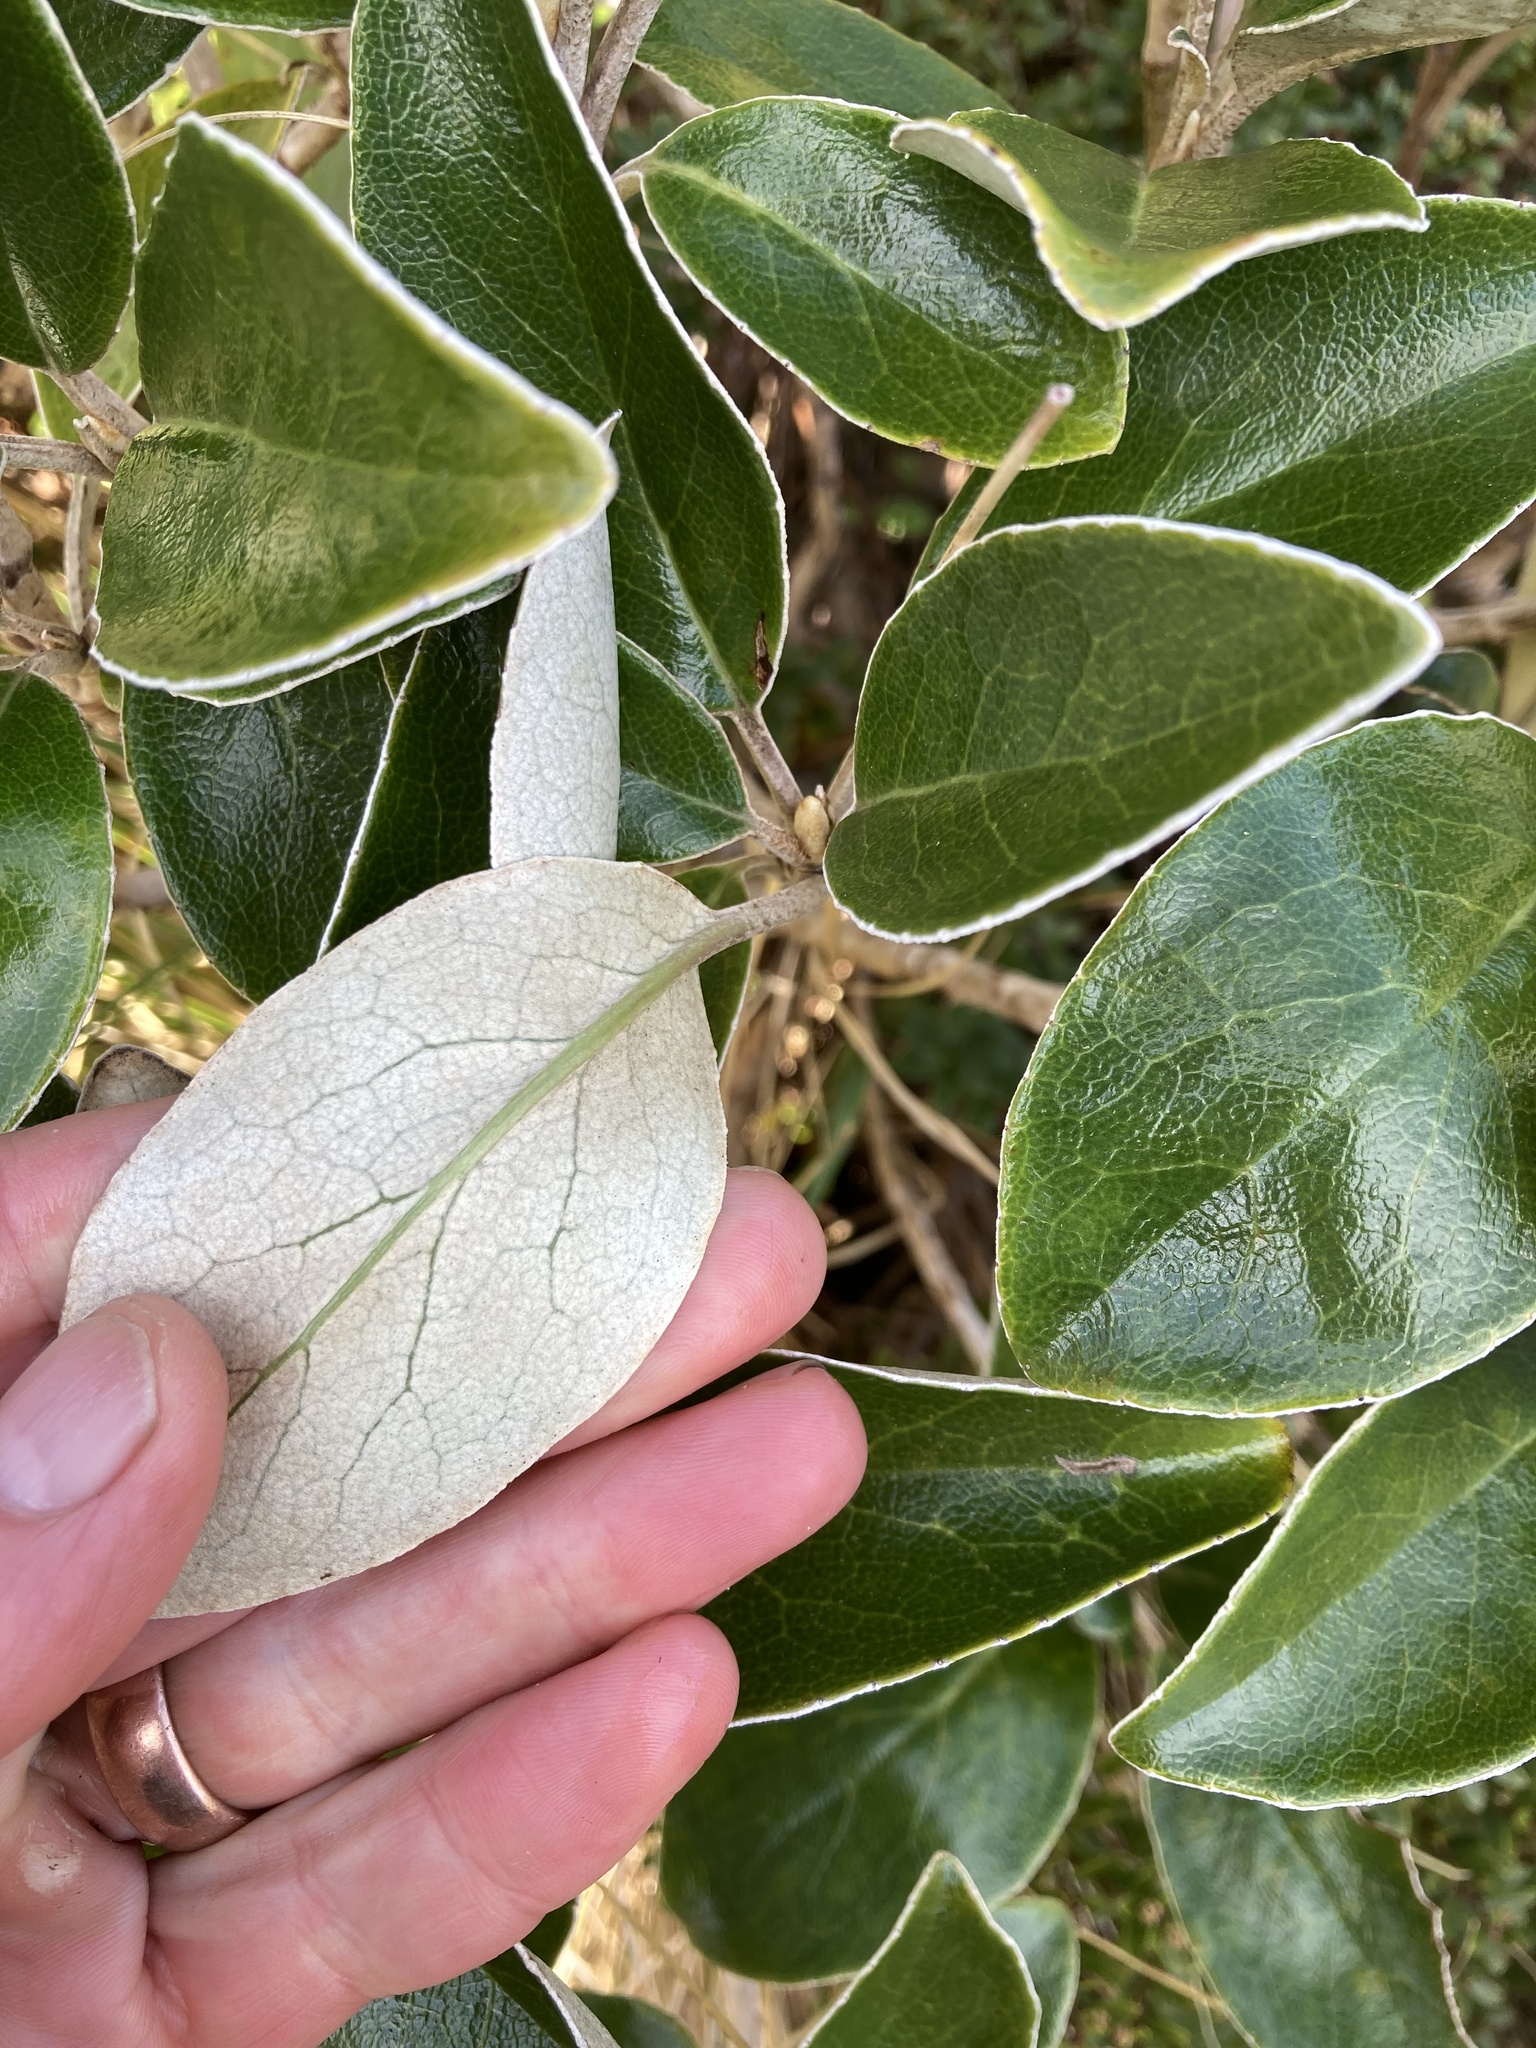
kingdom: Plantae
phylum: Tracheophyta
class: Magnoliopsida
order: Asterales
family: Asteraceae
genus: Brachyglottis
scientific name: Brachyglottis elaeagnifolia
